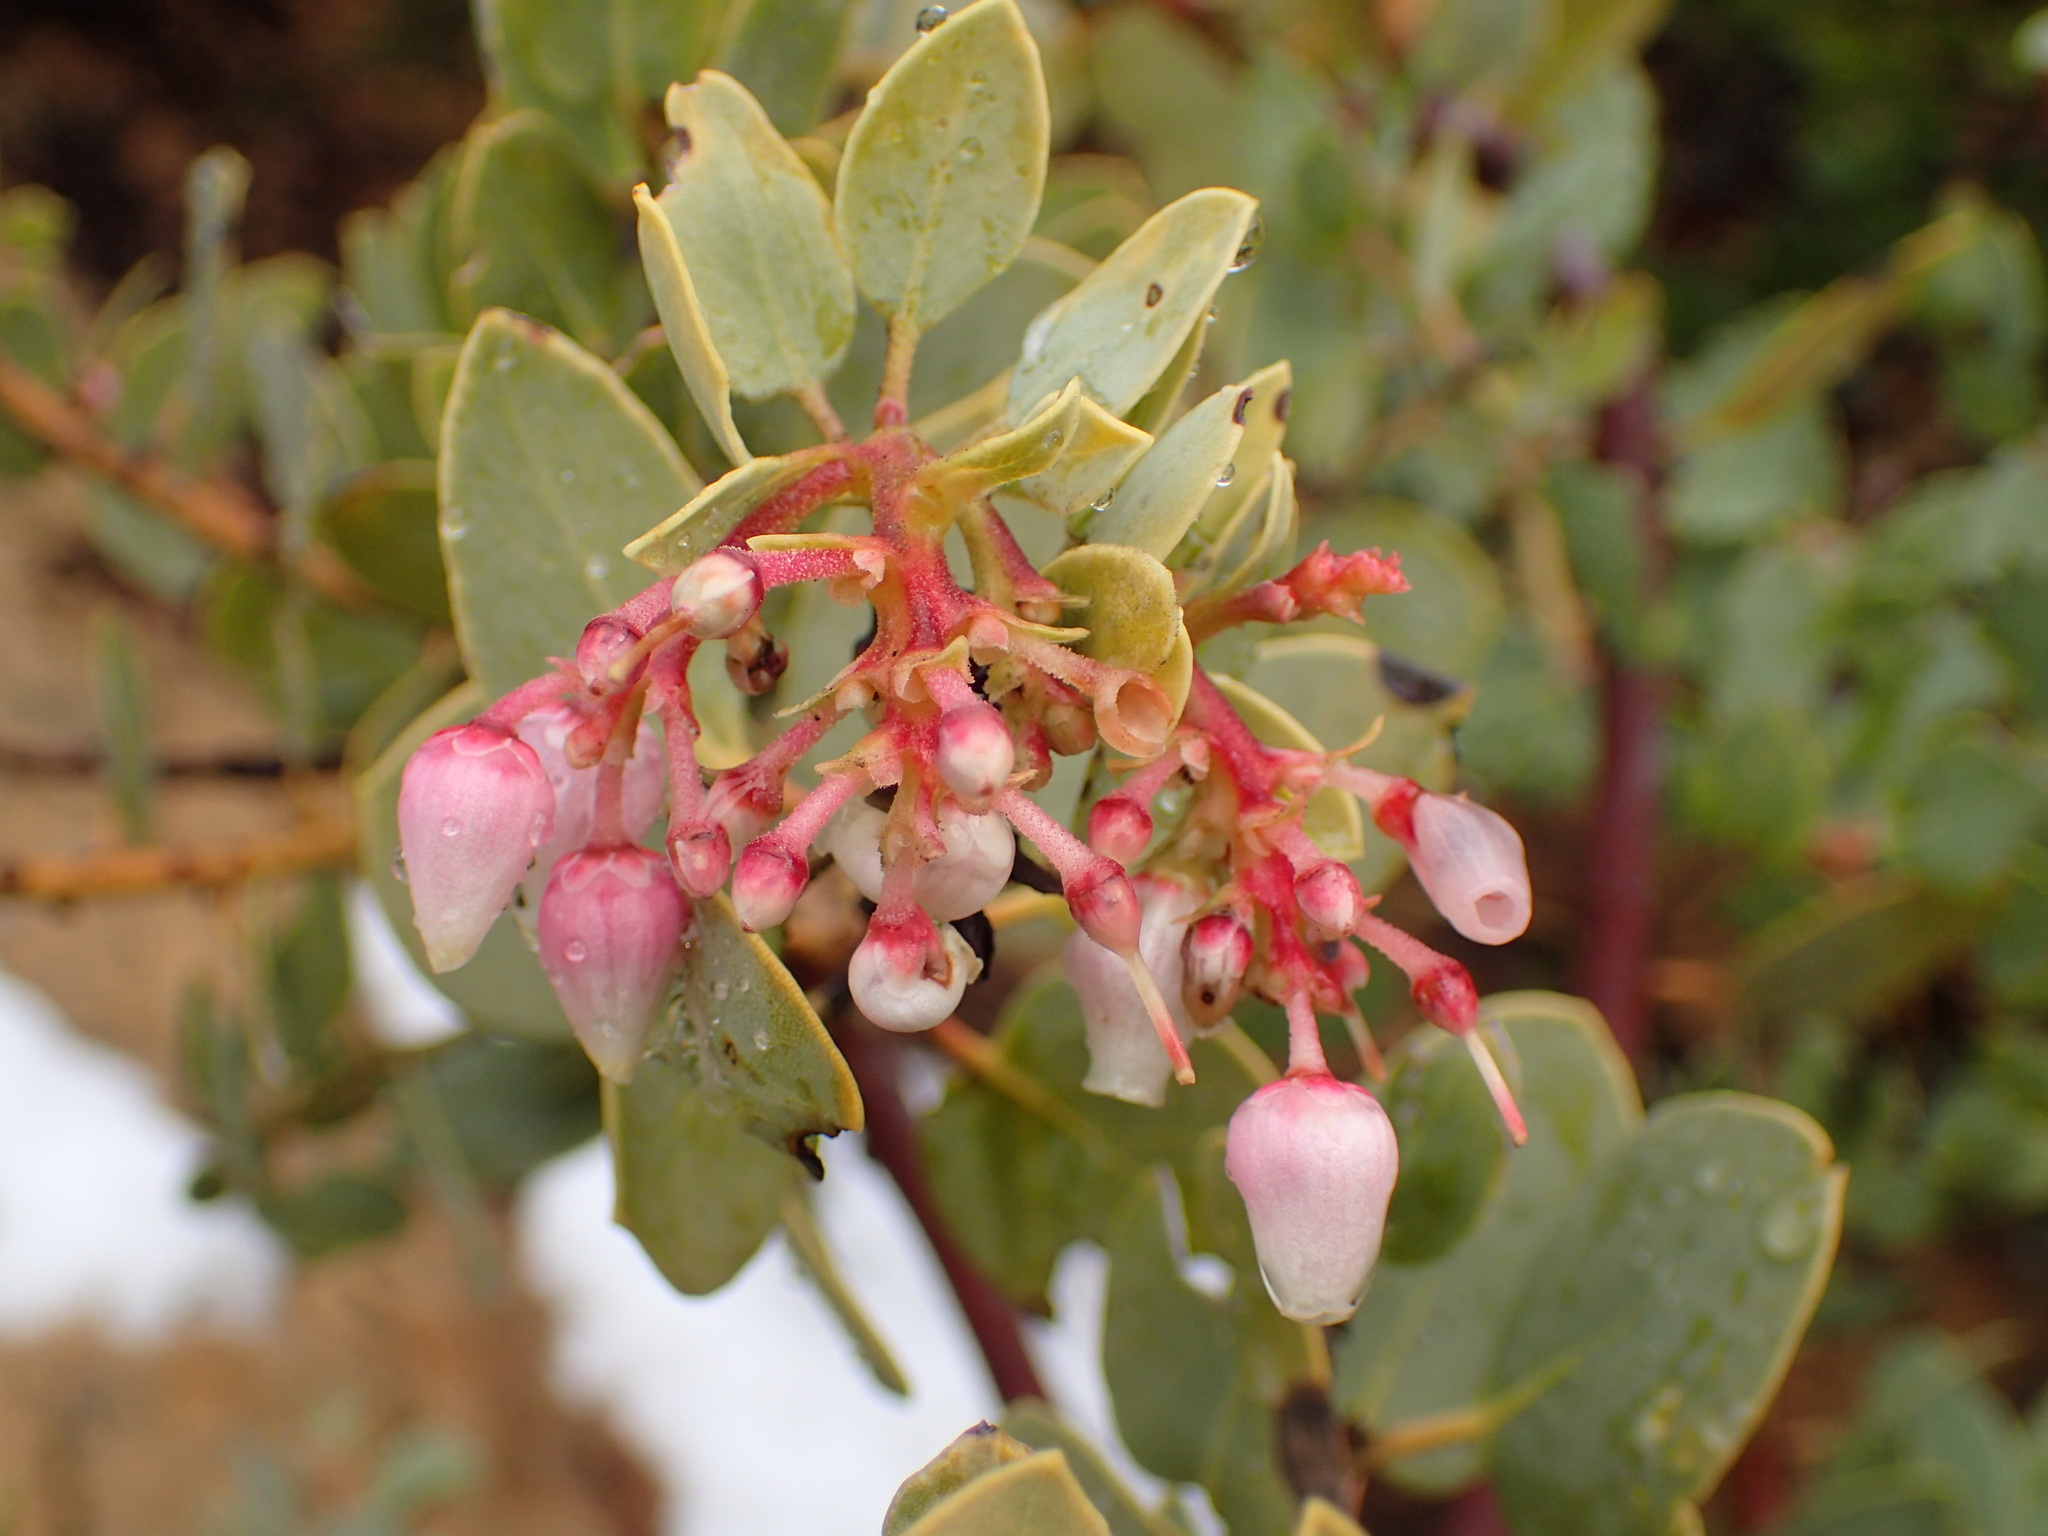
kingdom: Plantae
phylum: Tracheophyta
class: Magnoliopsida
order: Ericales
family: Ericaceae
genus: Arctostaphylos
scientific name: Arctostaphylos glauca
